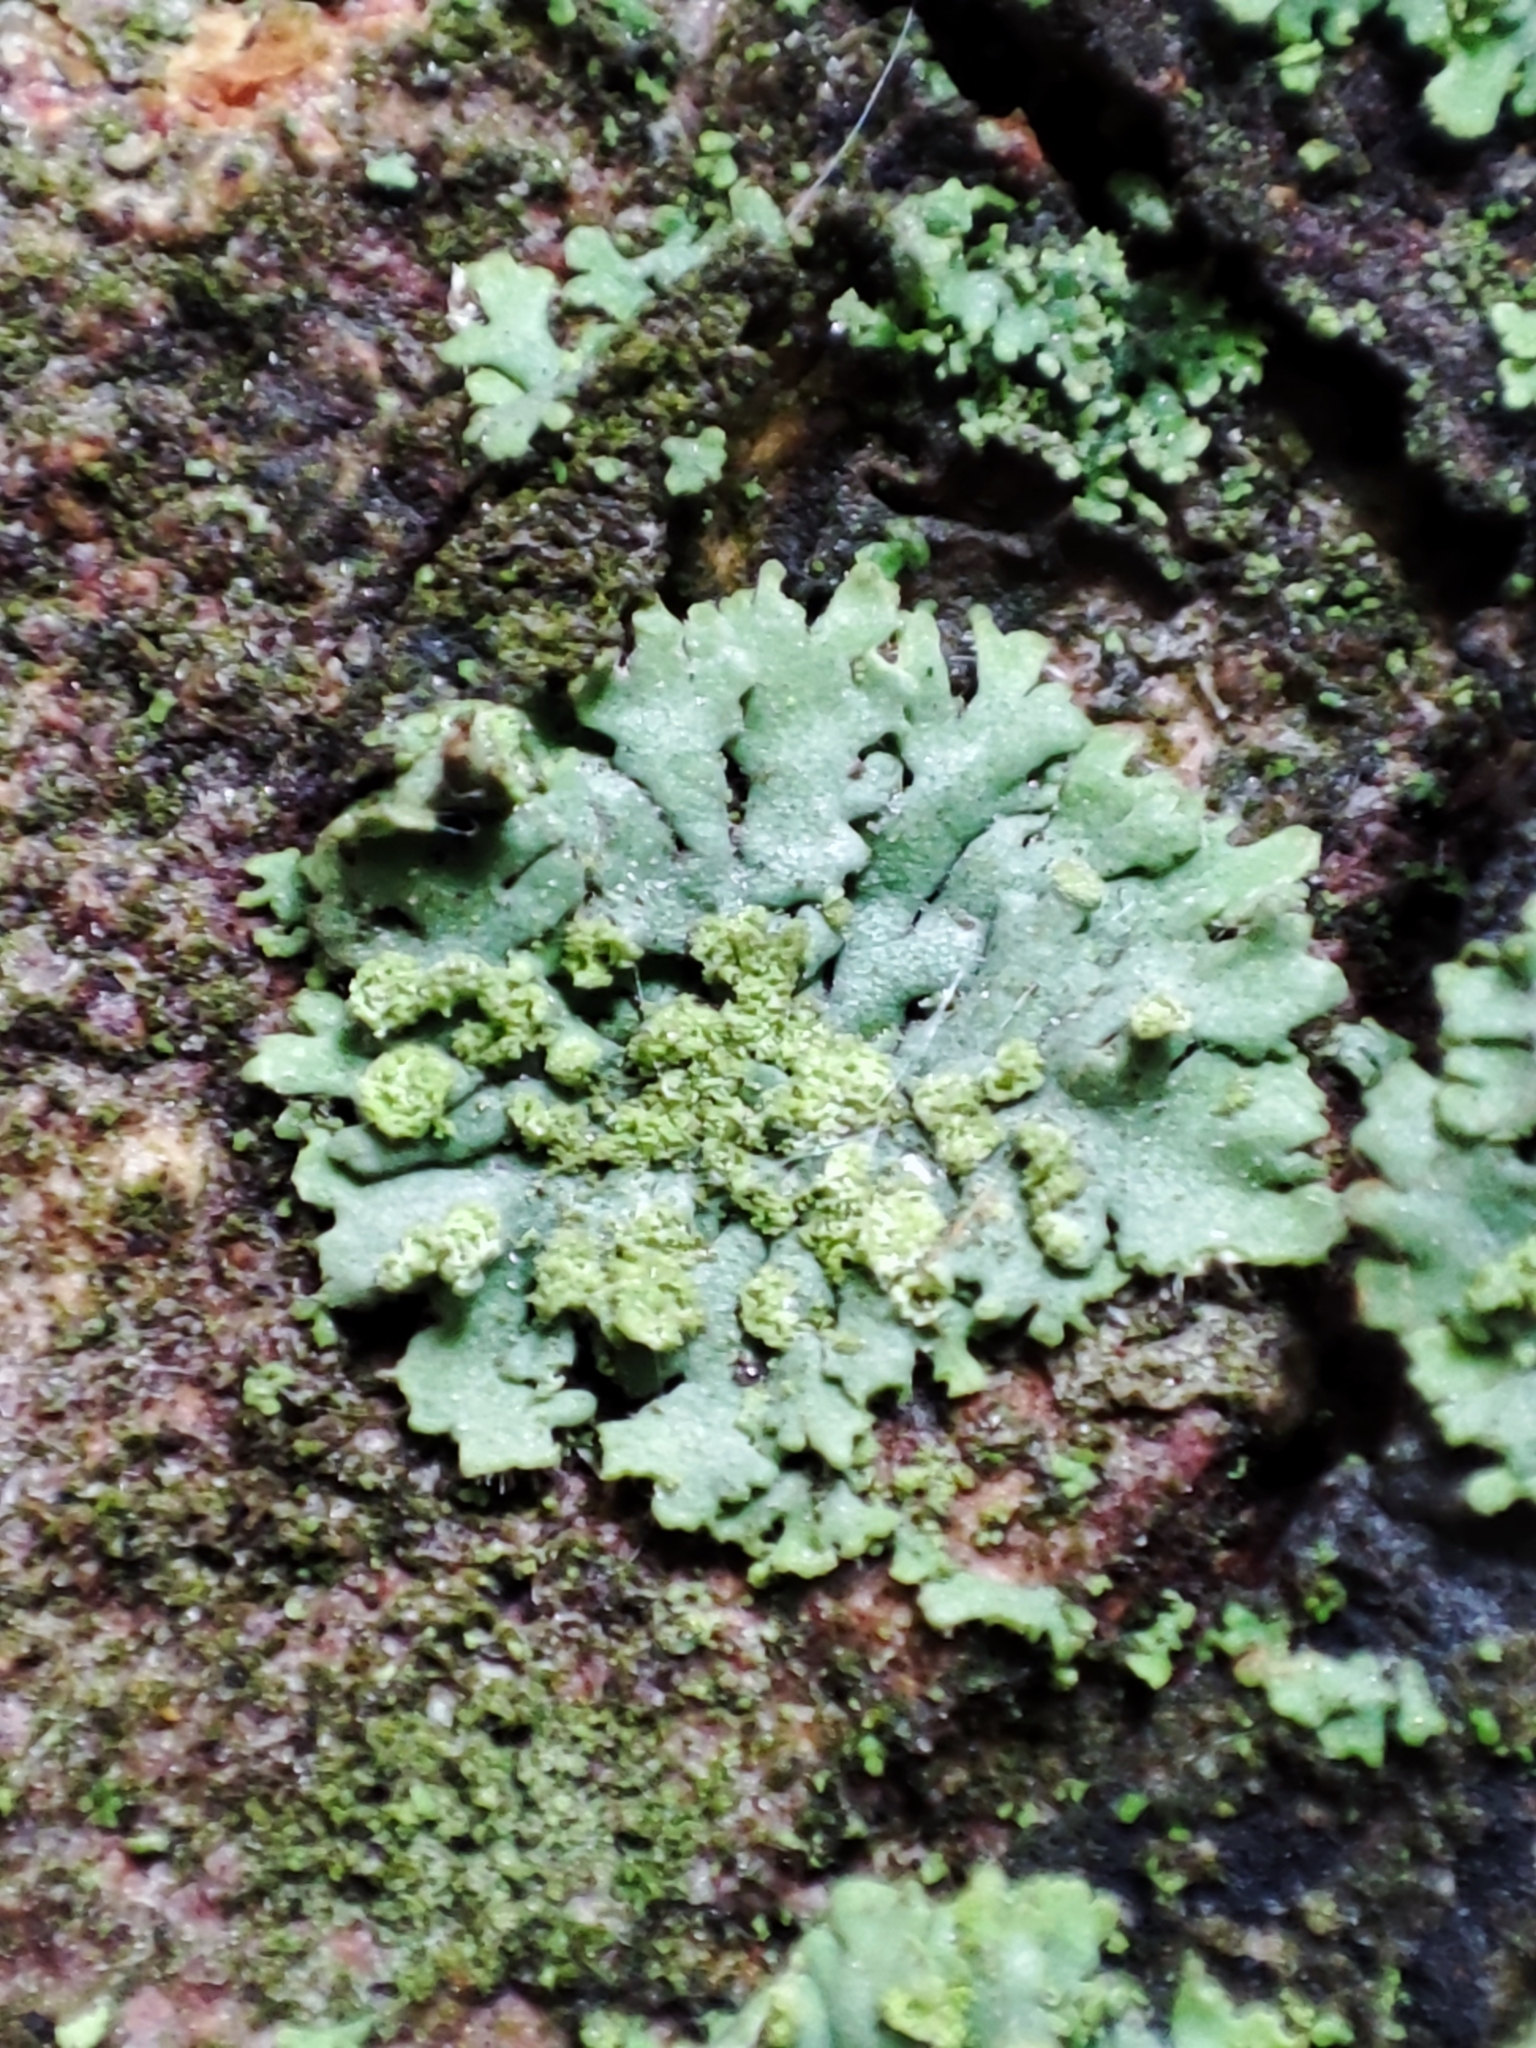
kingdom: Fungi
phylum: Ascomycota
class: Lecanoromycetes
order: Caliciales
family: Physciaceae
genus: Phaeophyscia
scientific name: Phaeophyscia orbicularis
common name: Mealy shadow lichen
